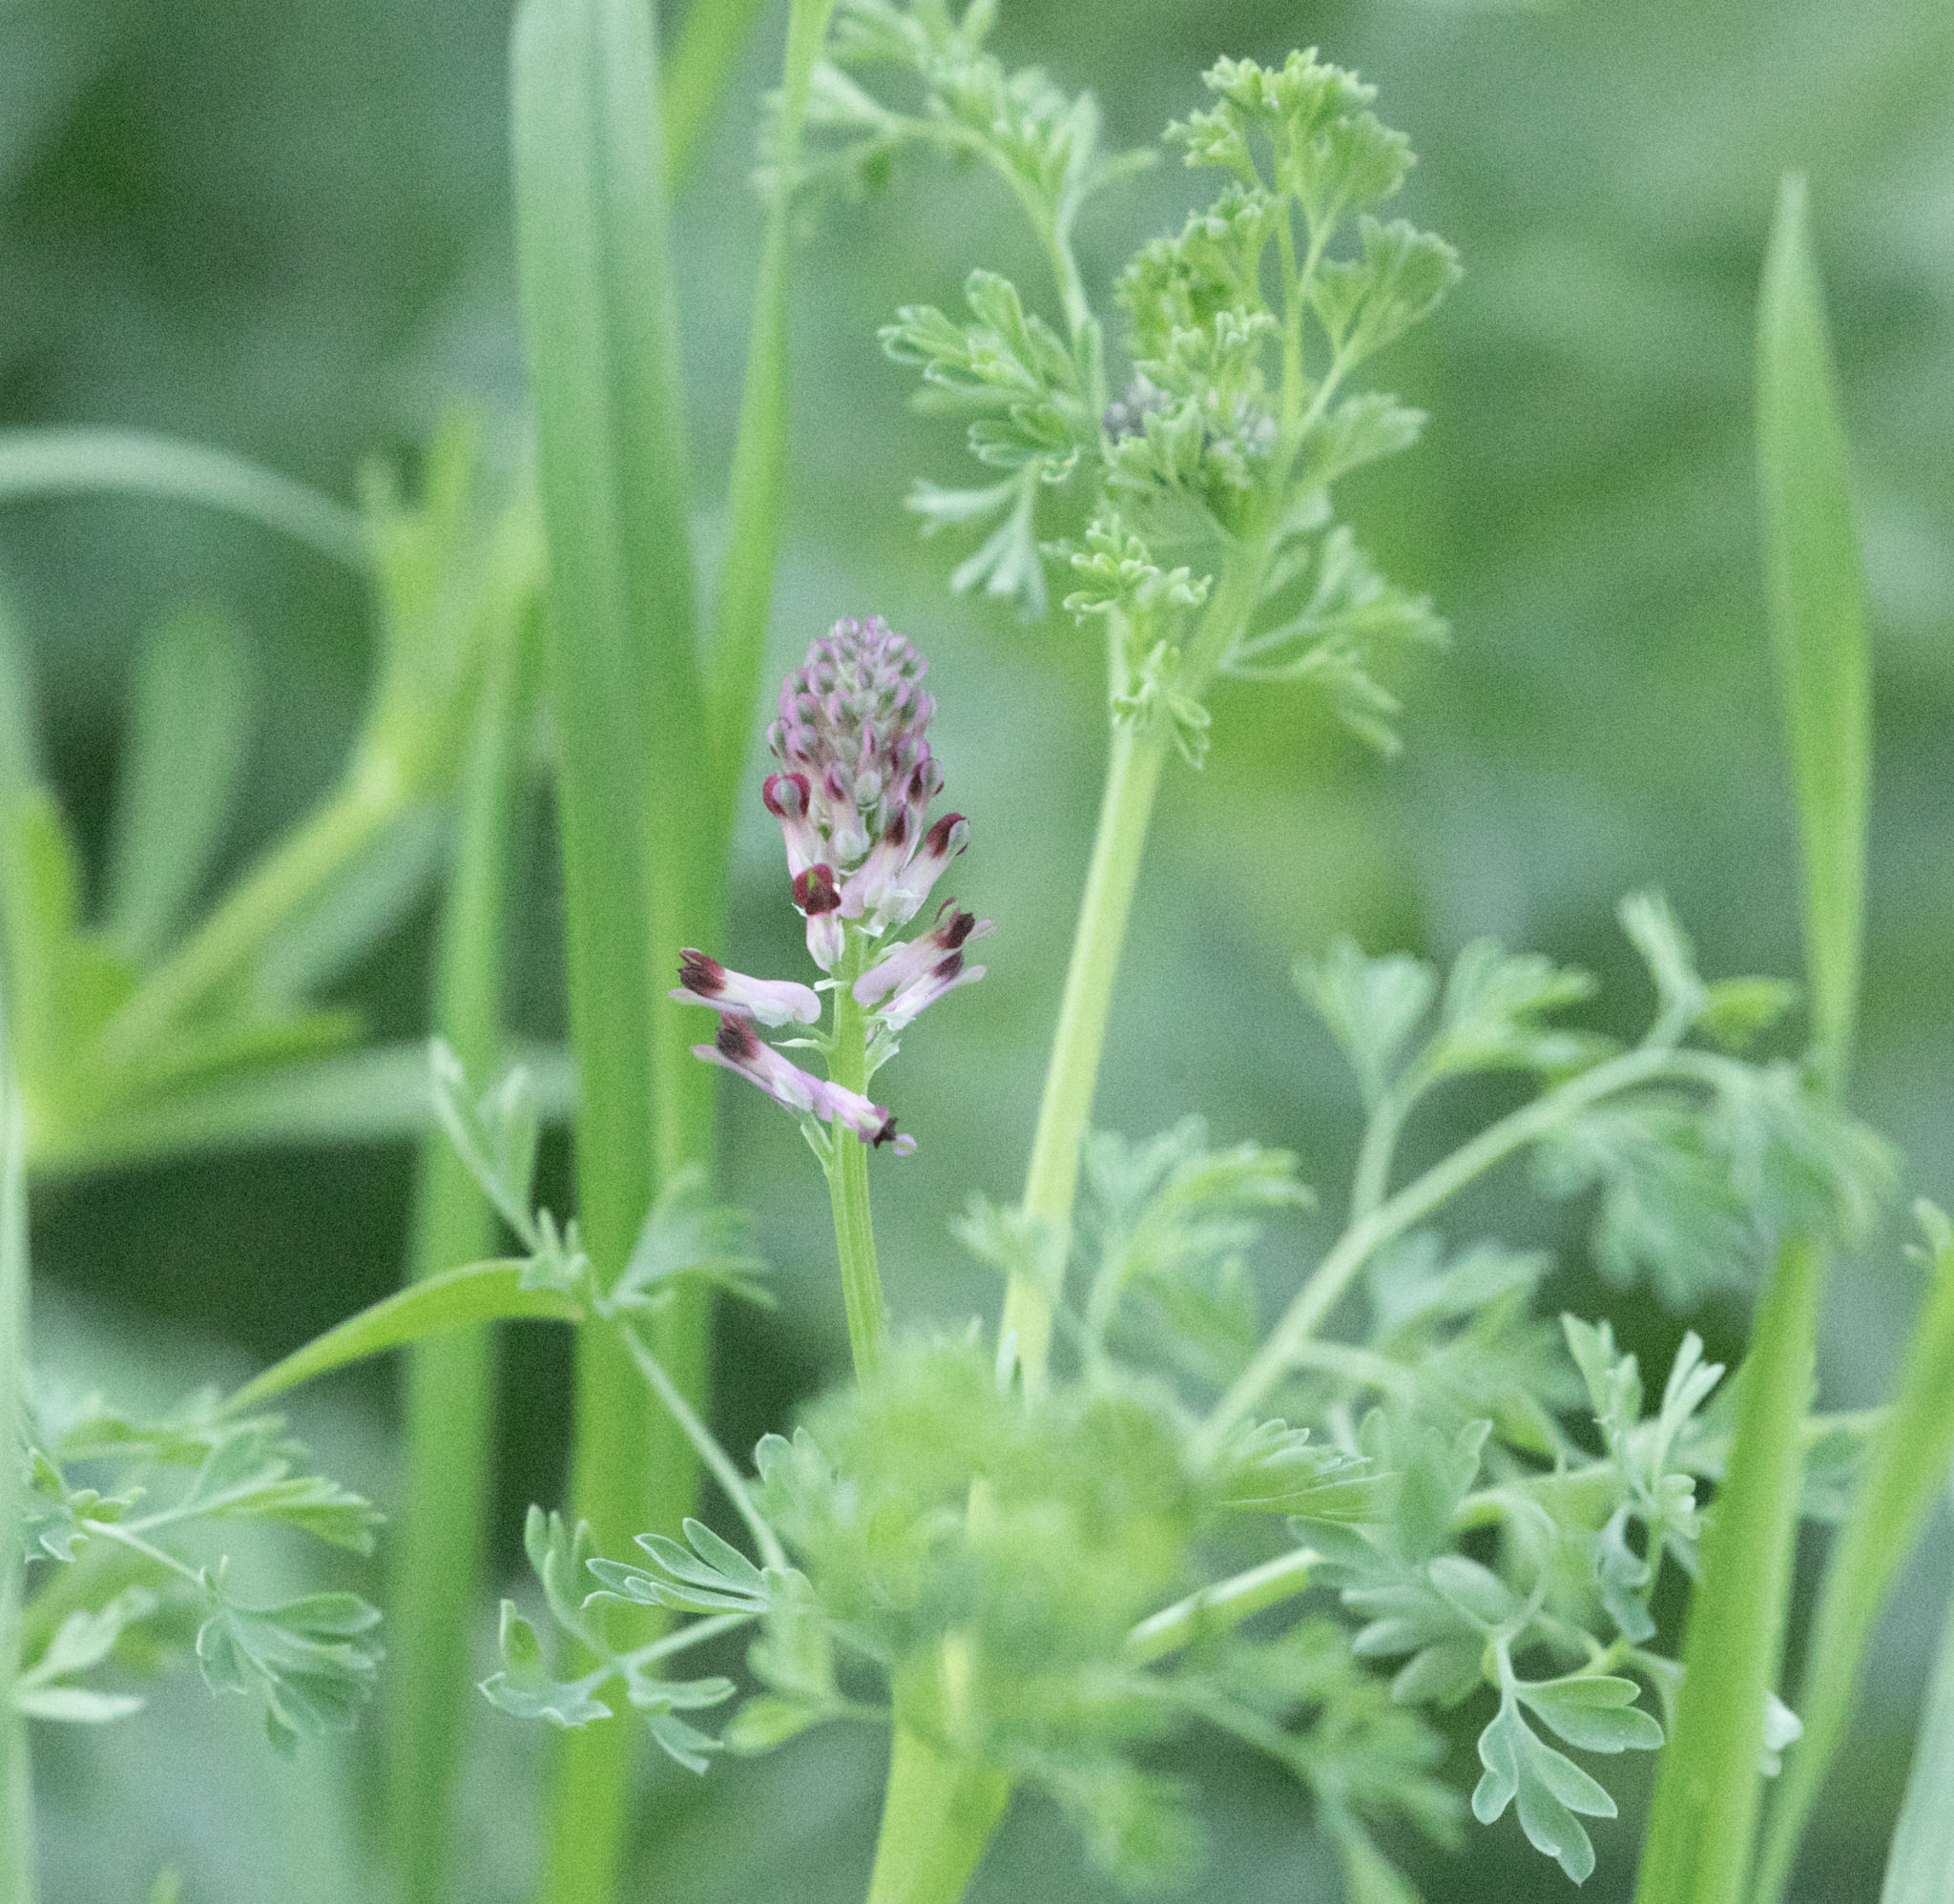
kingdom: Plantae
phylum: Tracheophyta
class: Magnoliopsida
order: Ranunculales
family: Papaveraceae
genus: Fumaria
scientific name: Fumaria officinalis
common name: Common fumitory
